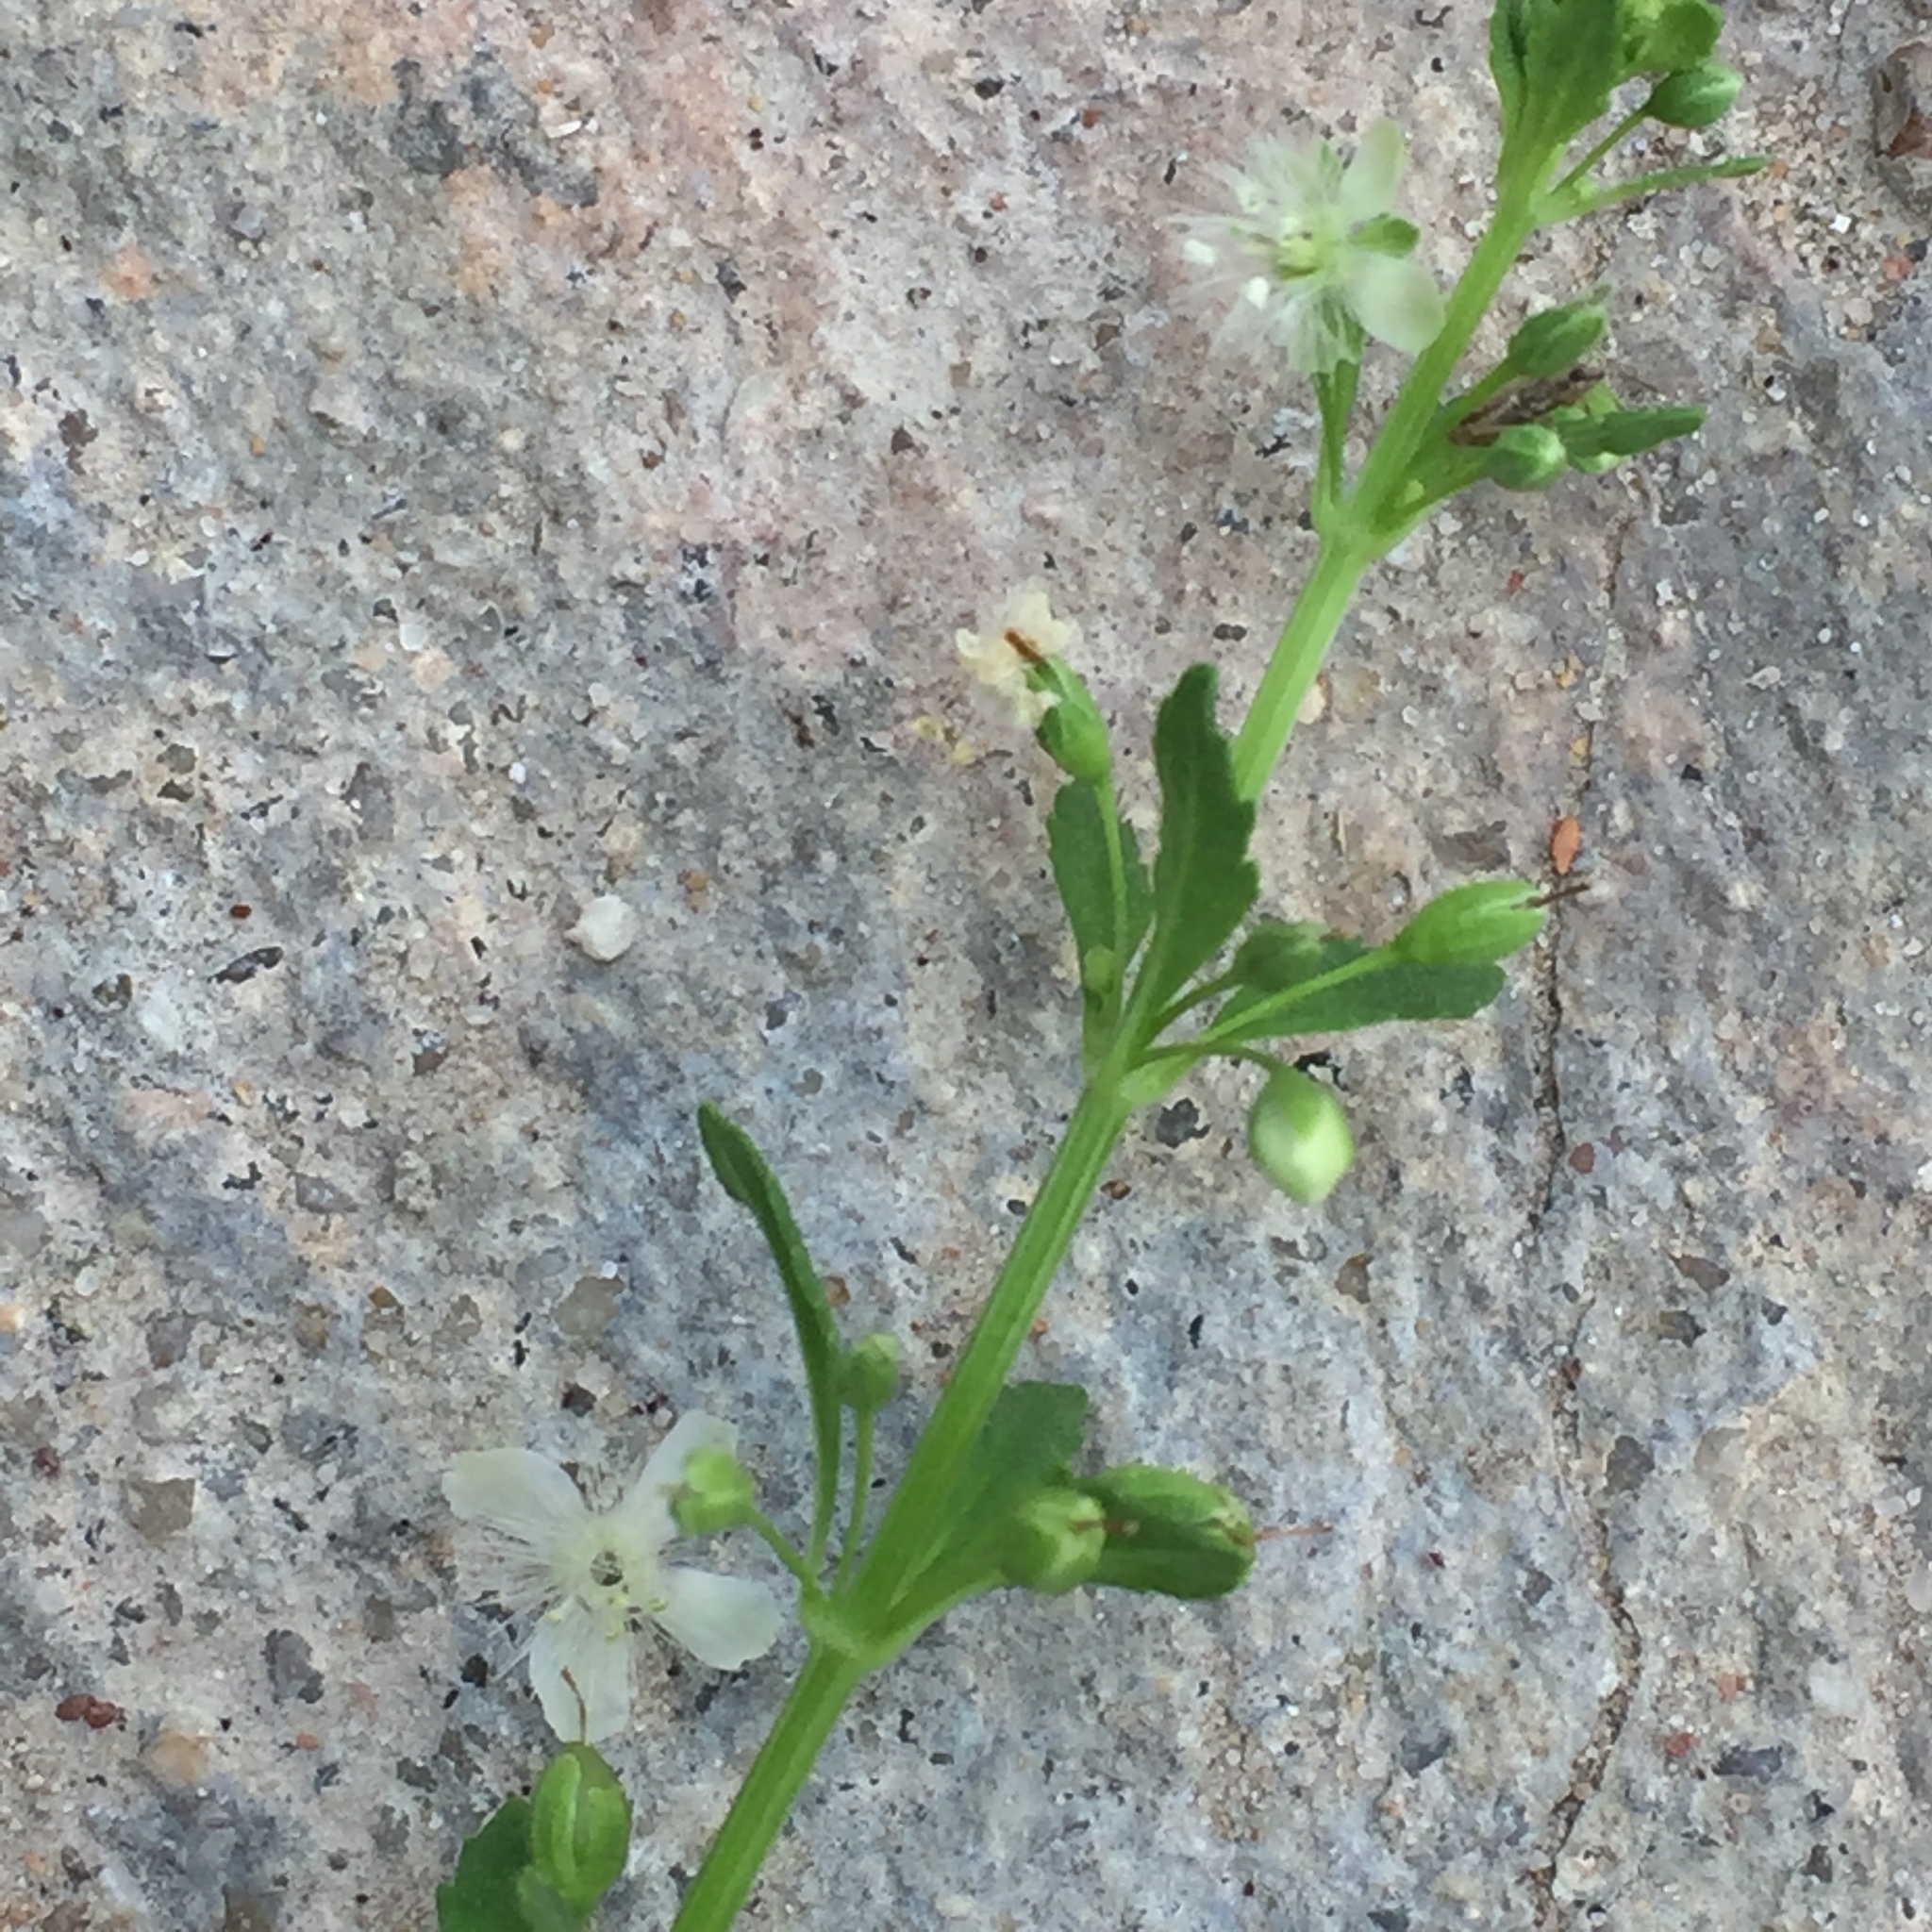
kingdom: Plantae
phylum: Tracheophyta
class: Magnoliopsida
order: Lamiales
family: Plantaginaceae
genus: Scoparia
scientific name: Scoparia dulcis
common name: Scoparia-weed
